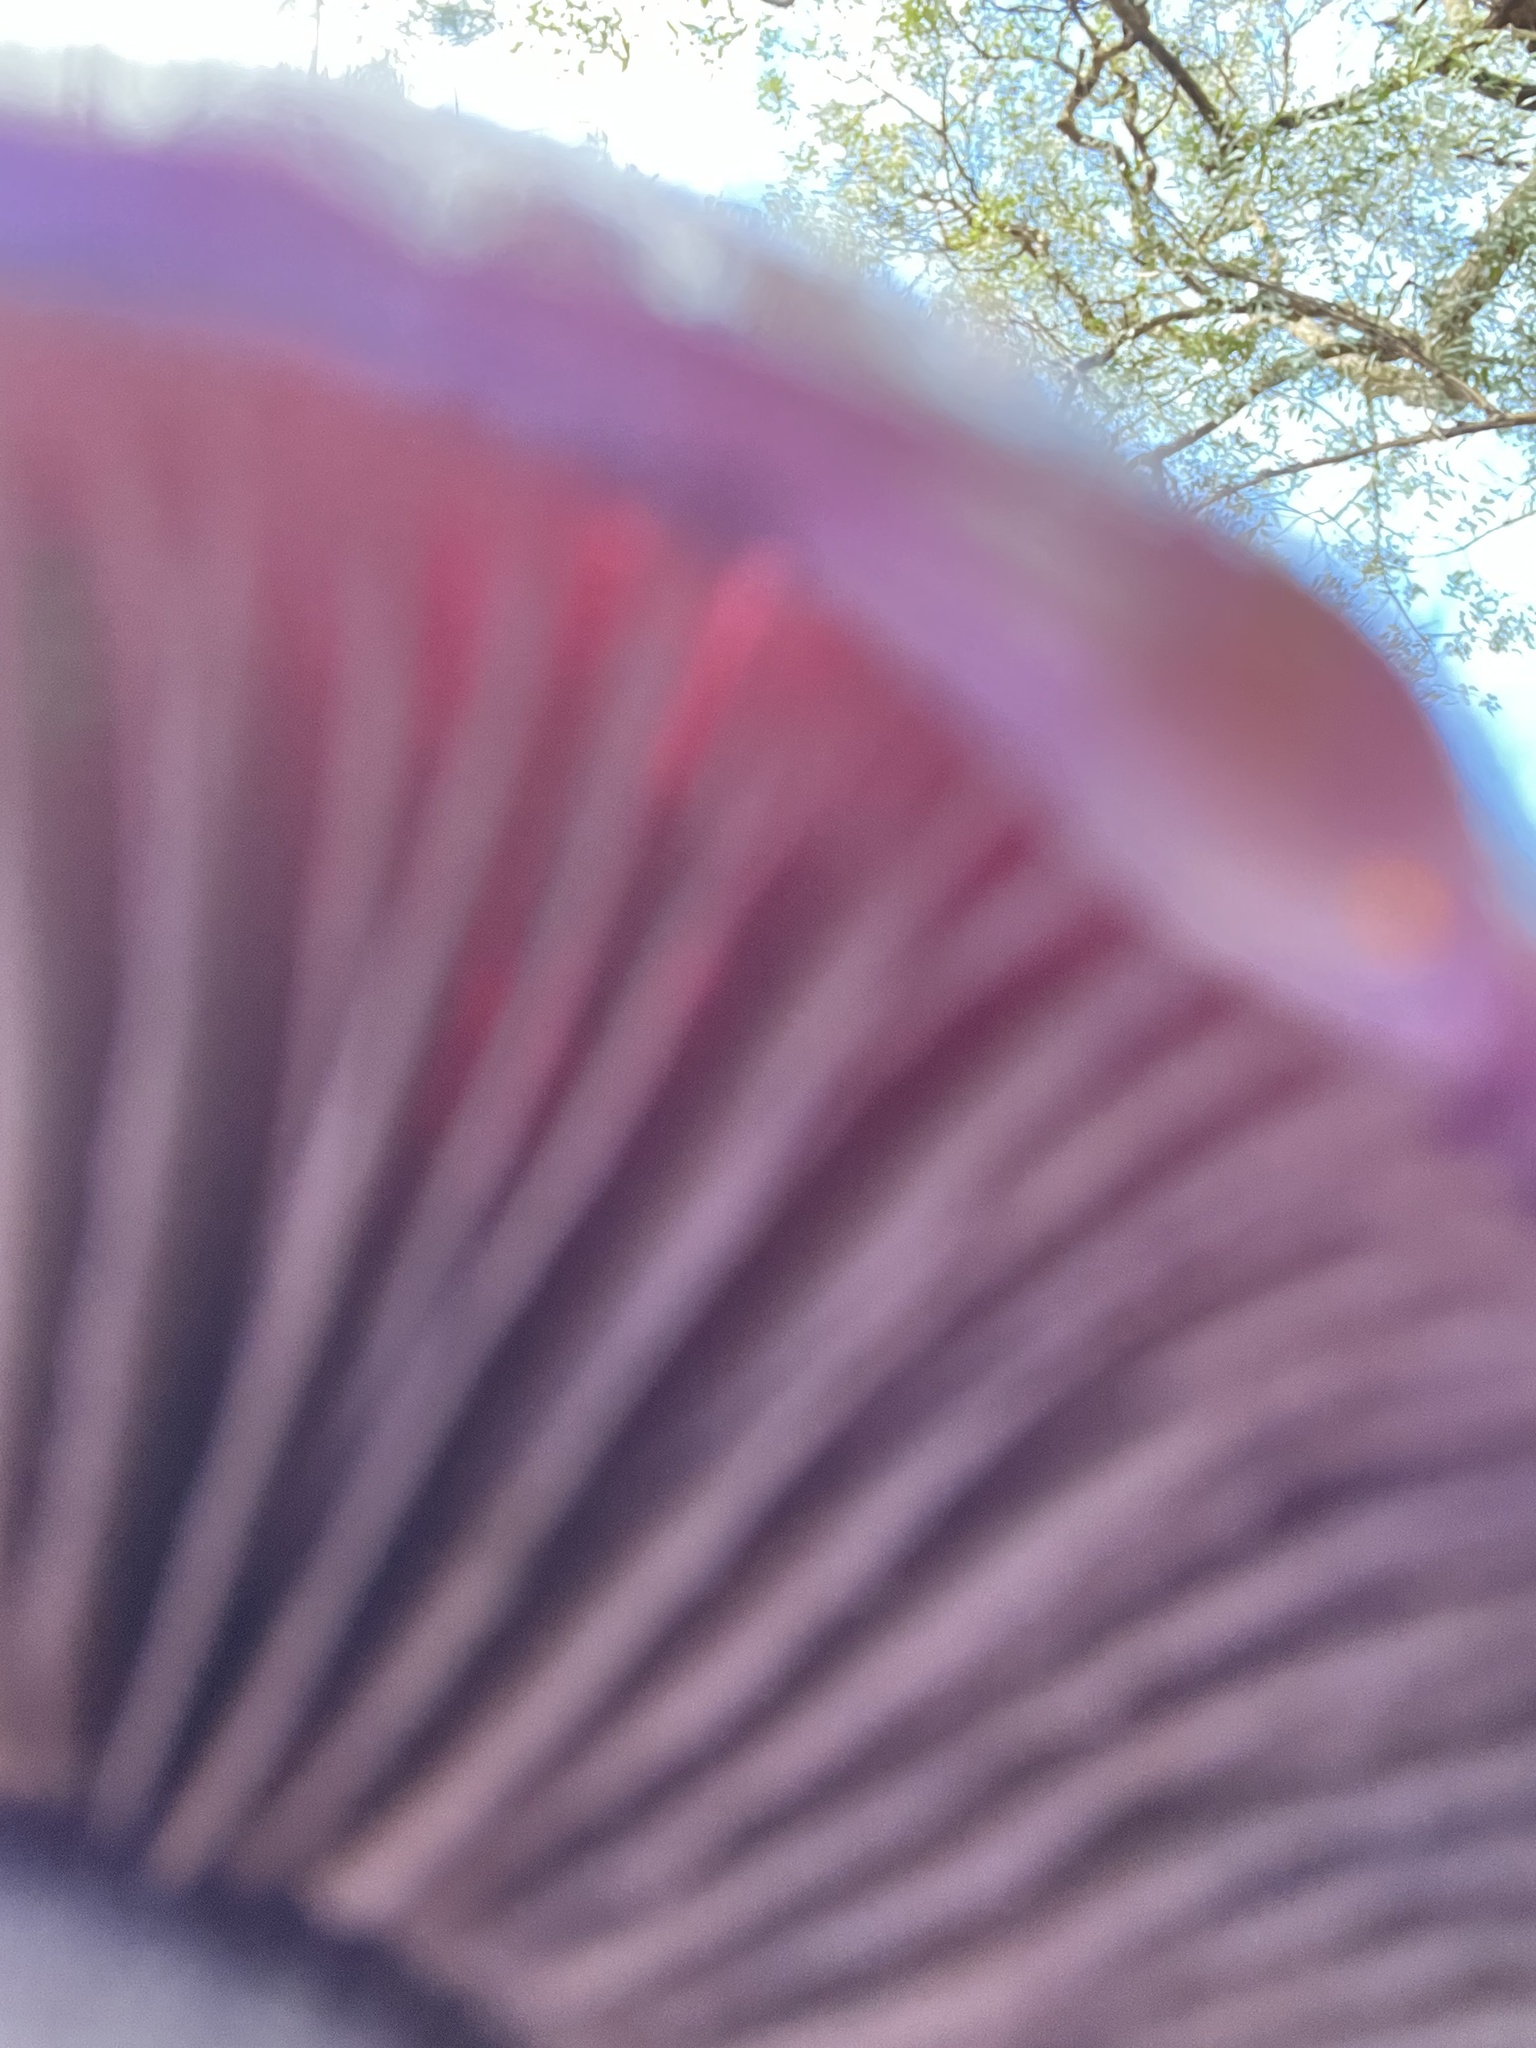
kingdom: Fungi
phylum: Basidiomycota
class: Agaricomycetes
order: Agaricales
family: Cortinariaceae
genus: Cortinarius
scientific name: Cortinarius archeri
